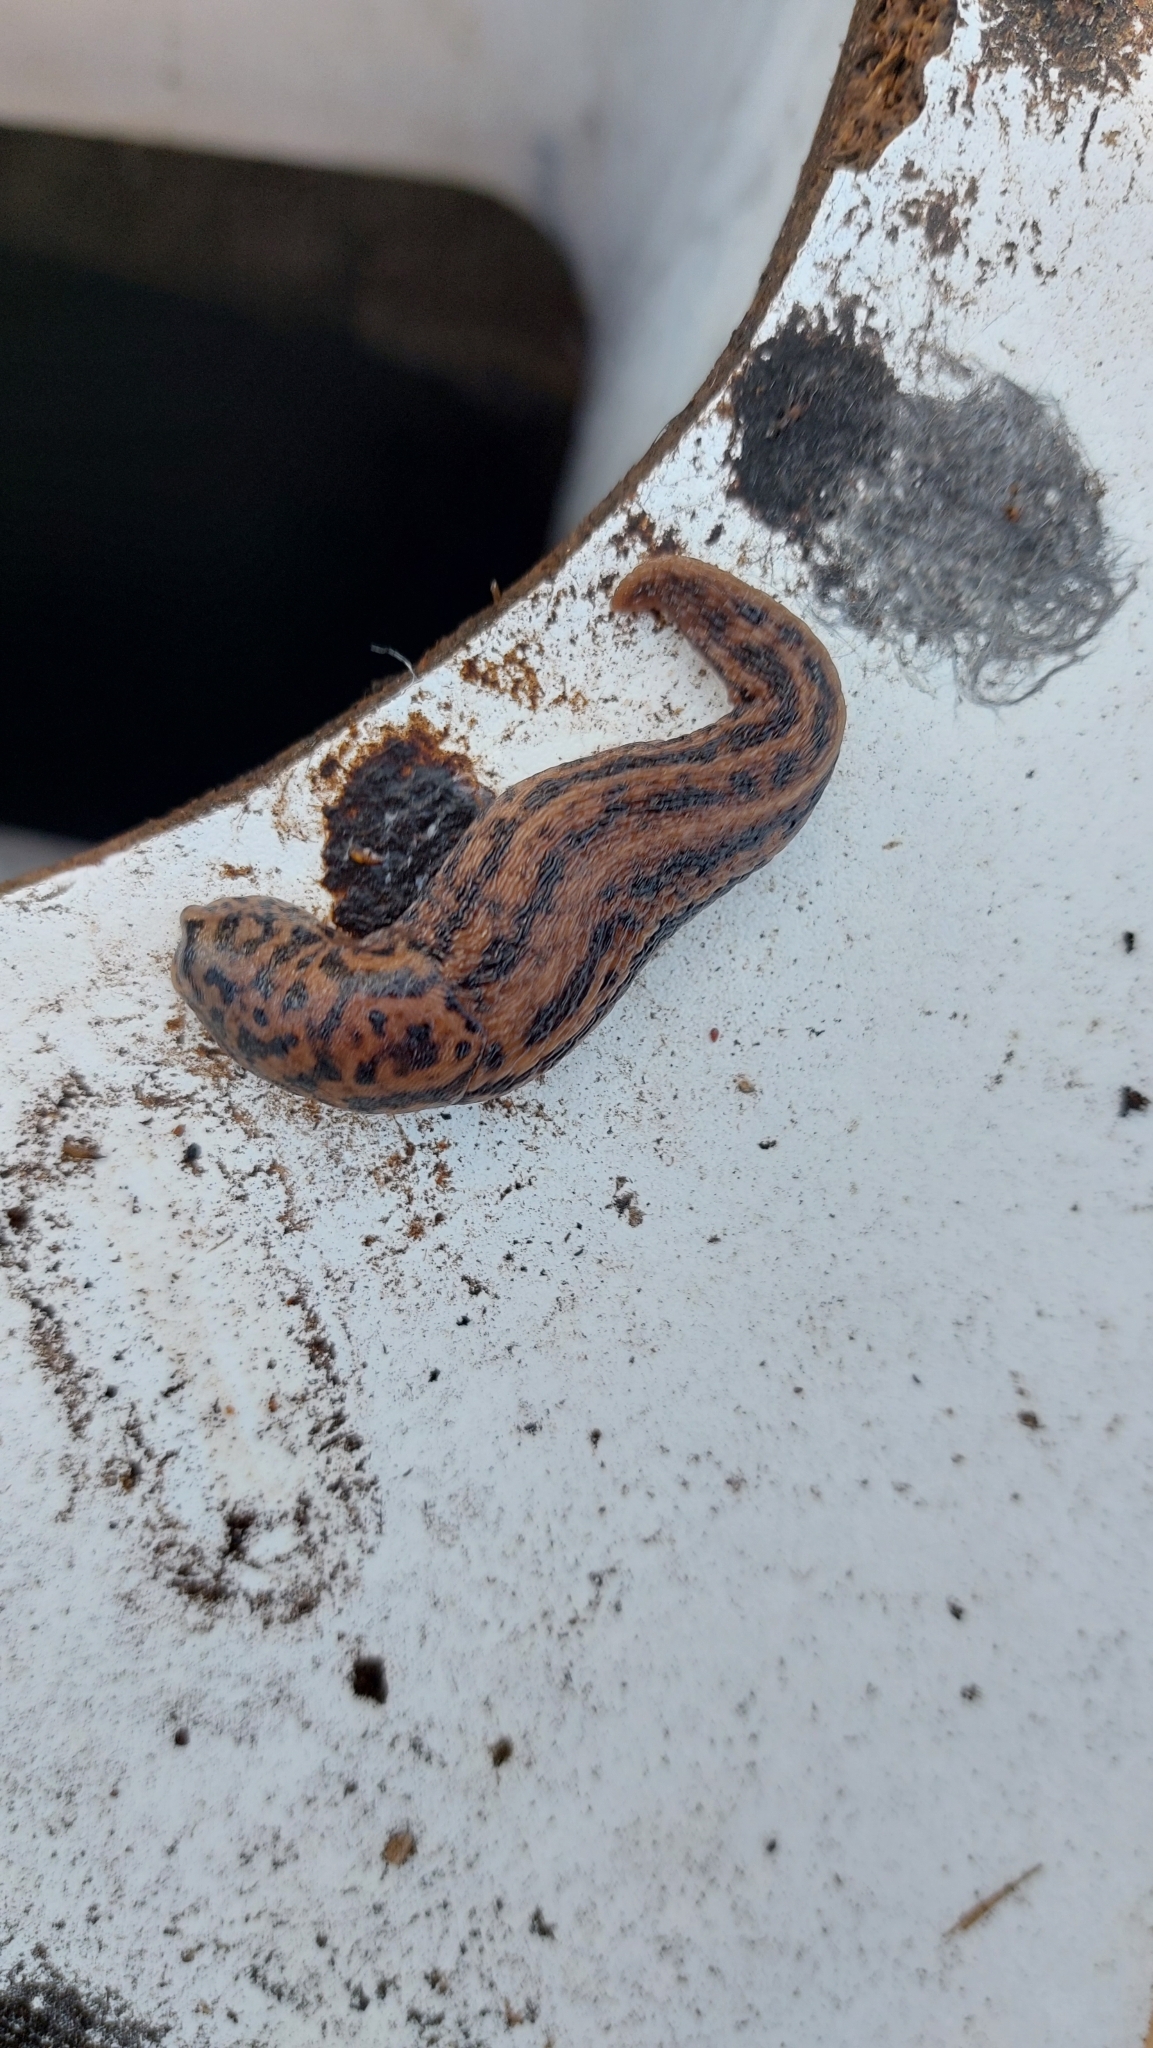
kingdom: Animalia
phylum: Mollusca
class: Gastropoda
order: Stylommatophora
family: Limacidae
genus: Limax
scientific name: Limax maximus
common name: Great grey slug
